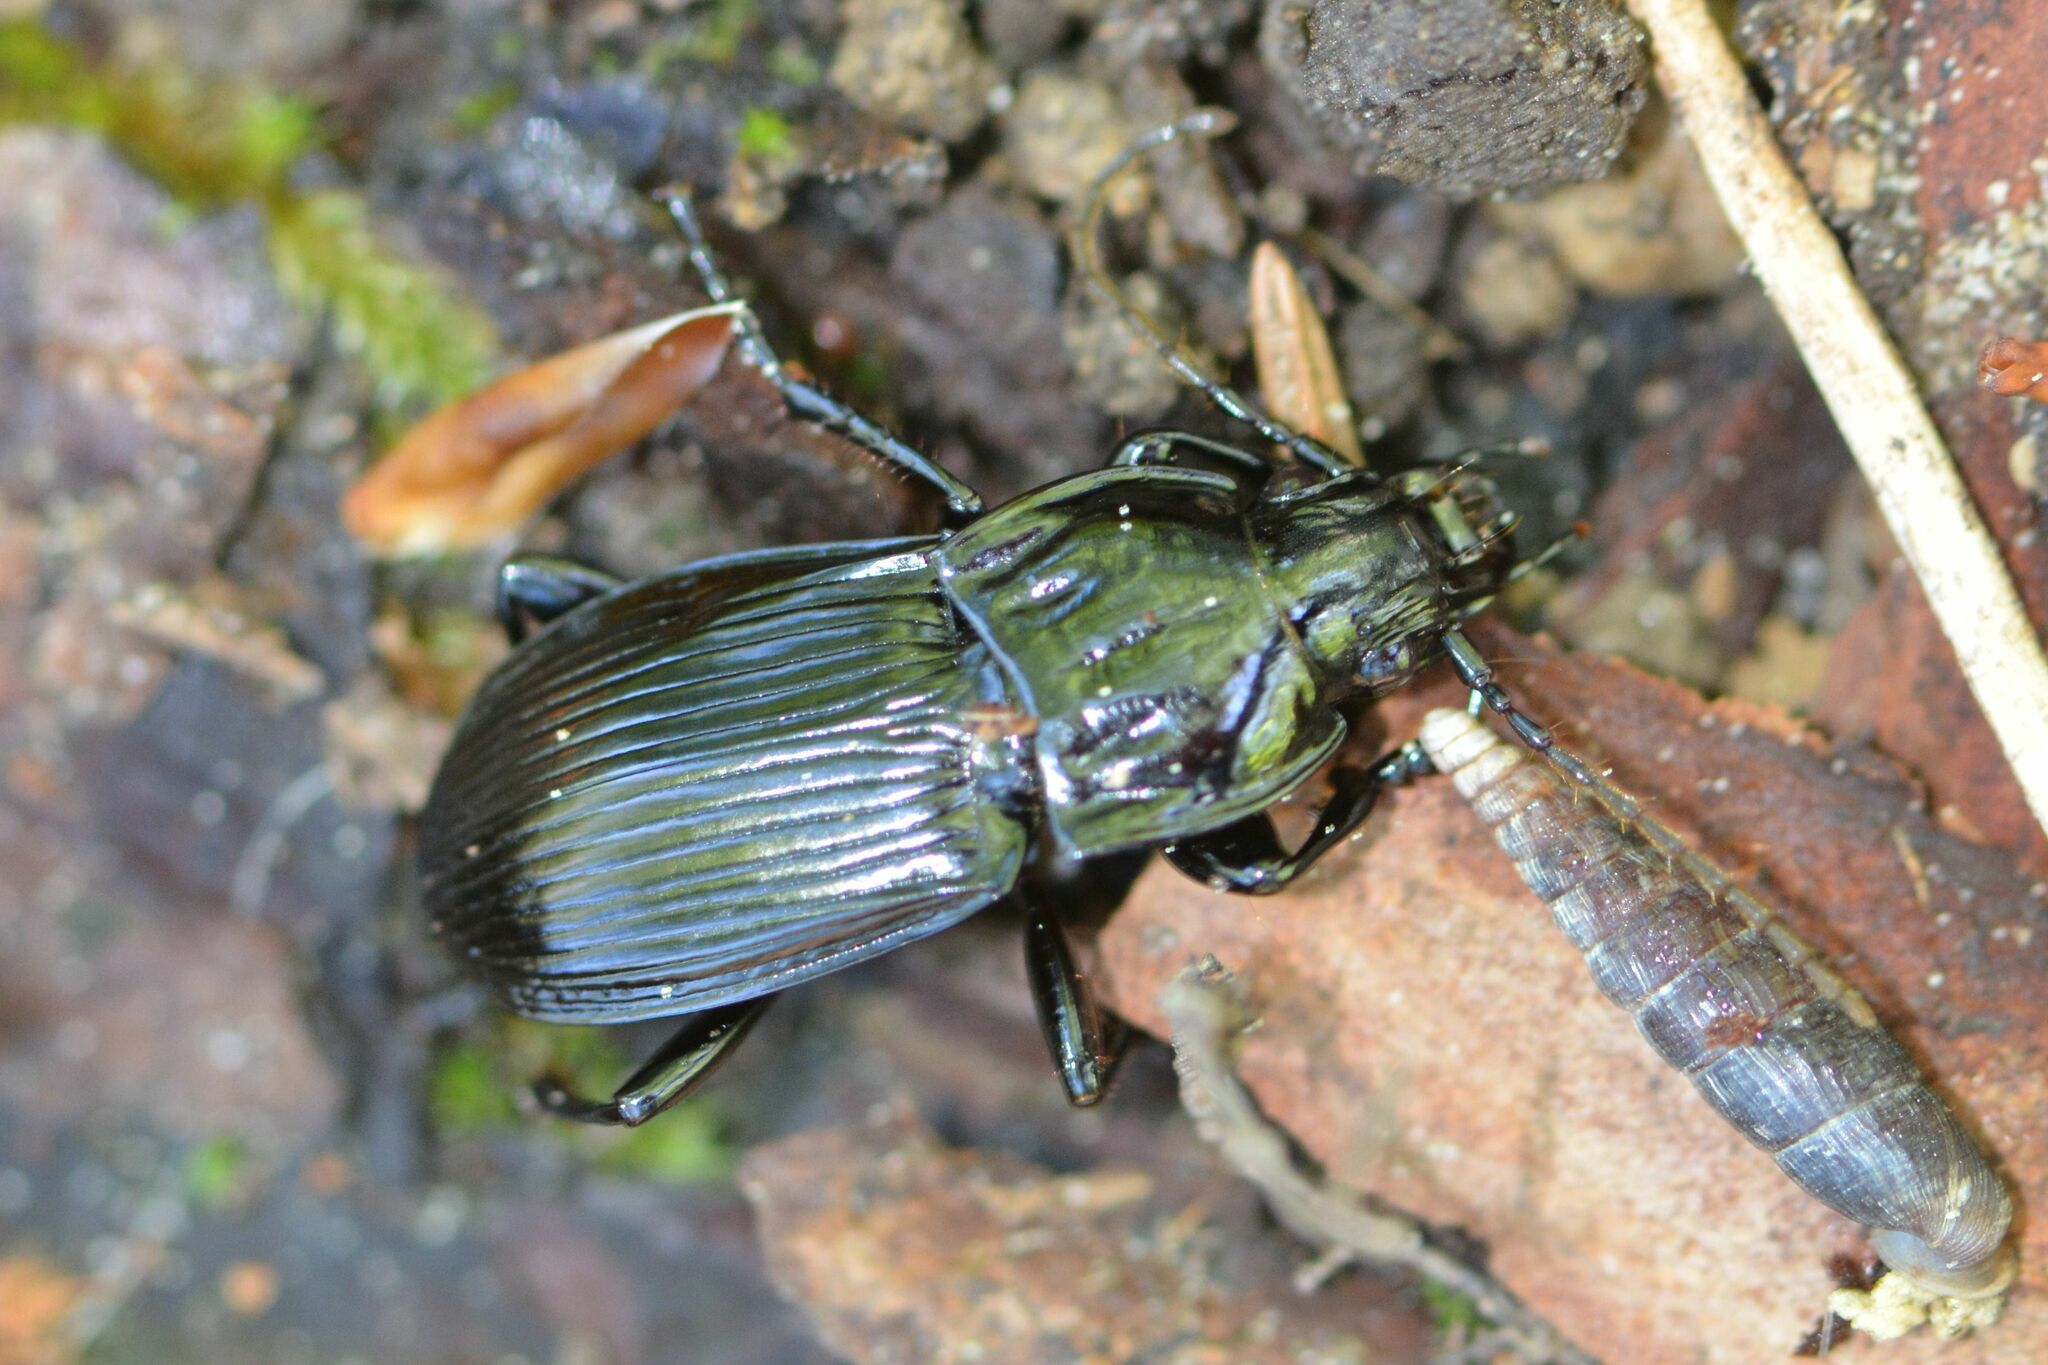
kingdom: Animalia
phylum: Arthropoda
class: Insecta
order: Coleoptera
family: Carabidae
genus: Abax
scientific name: Abax parallelepipedus
